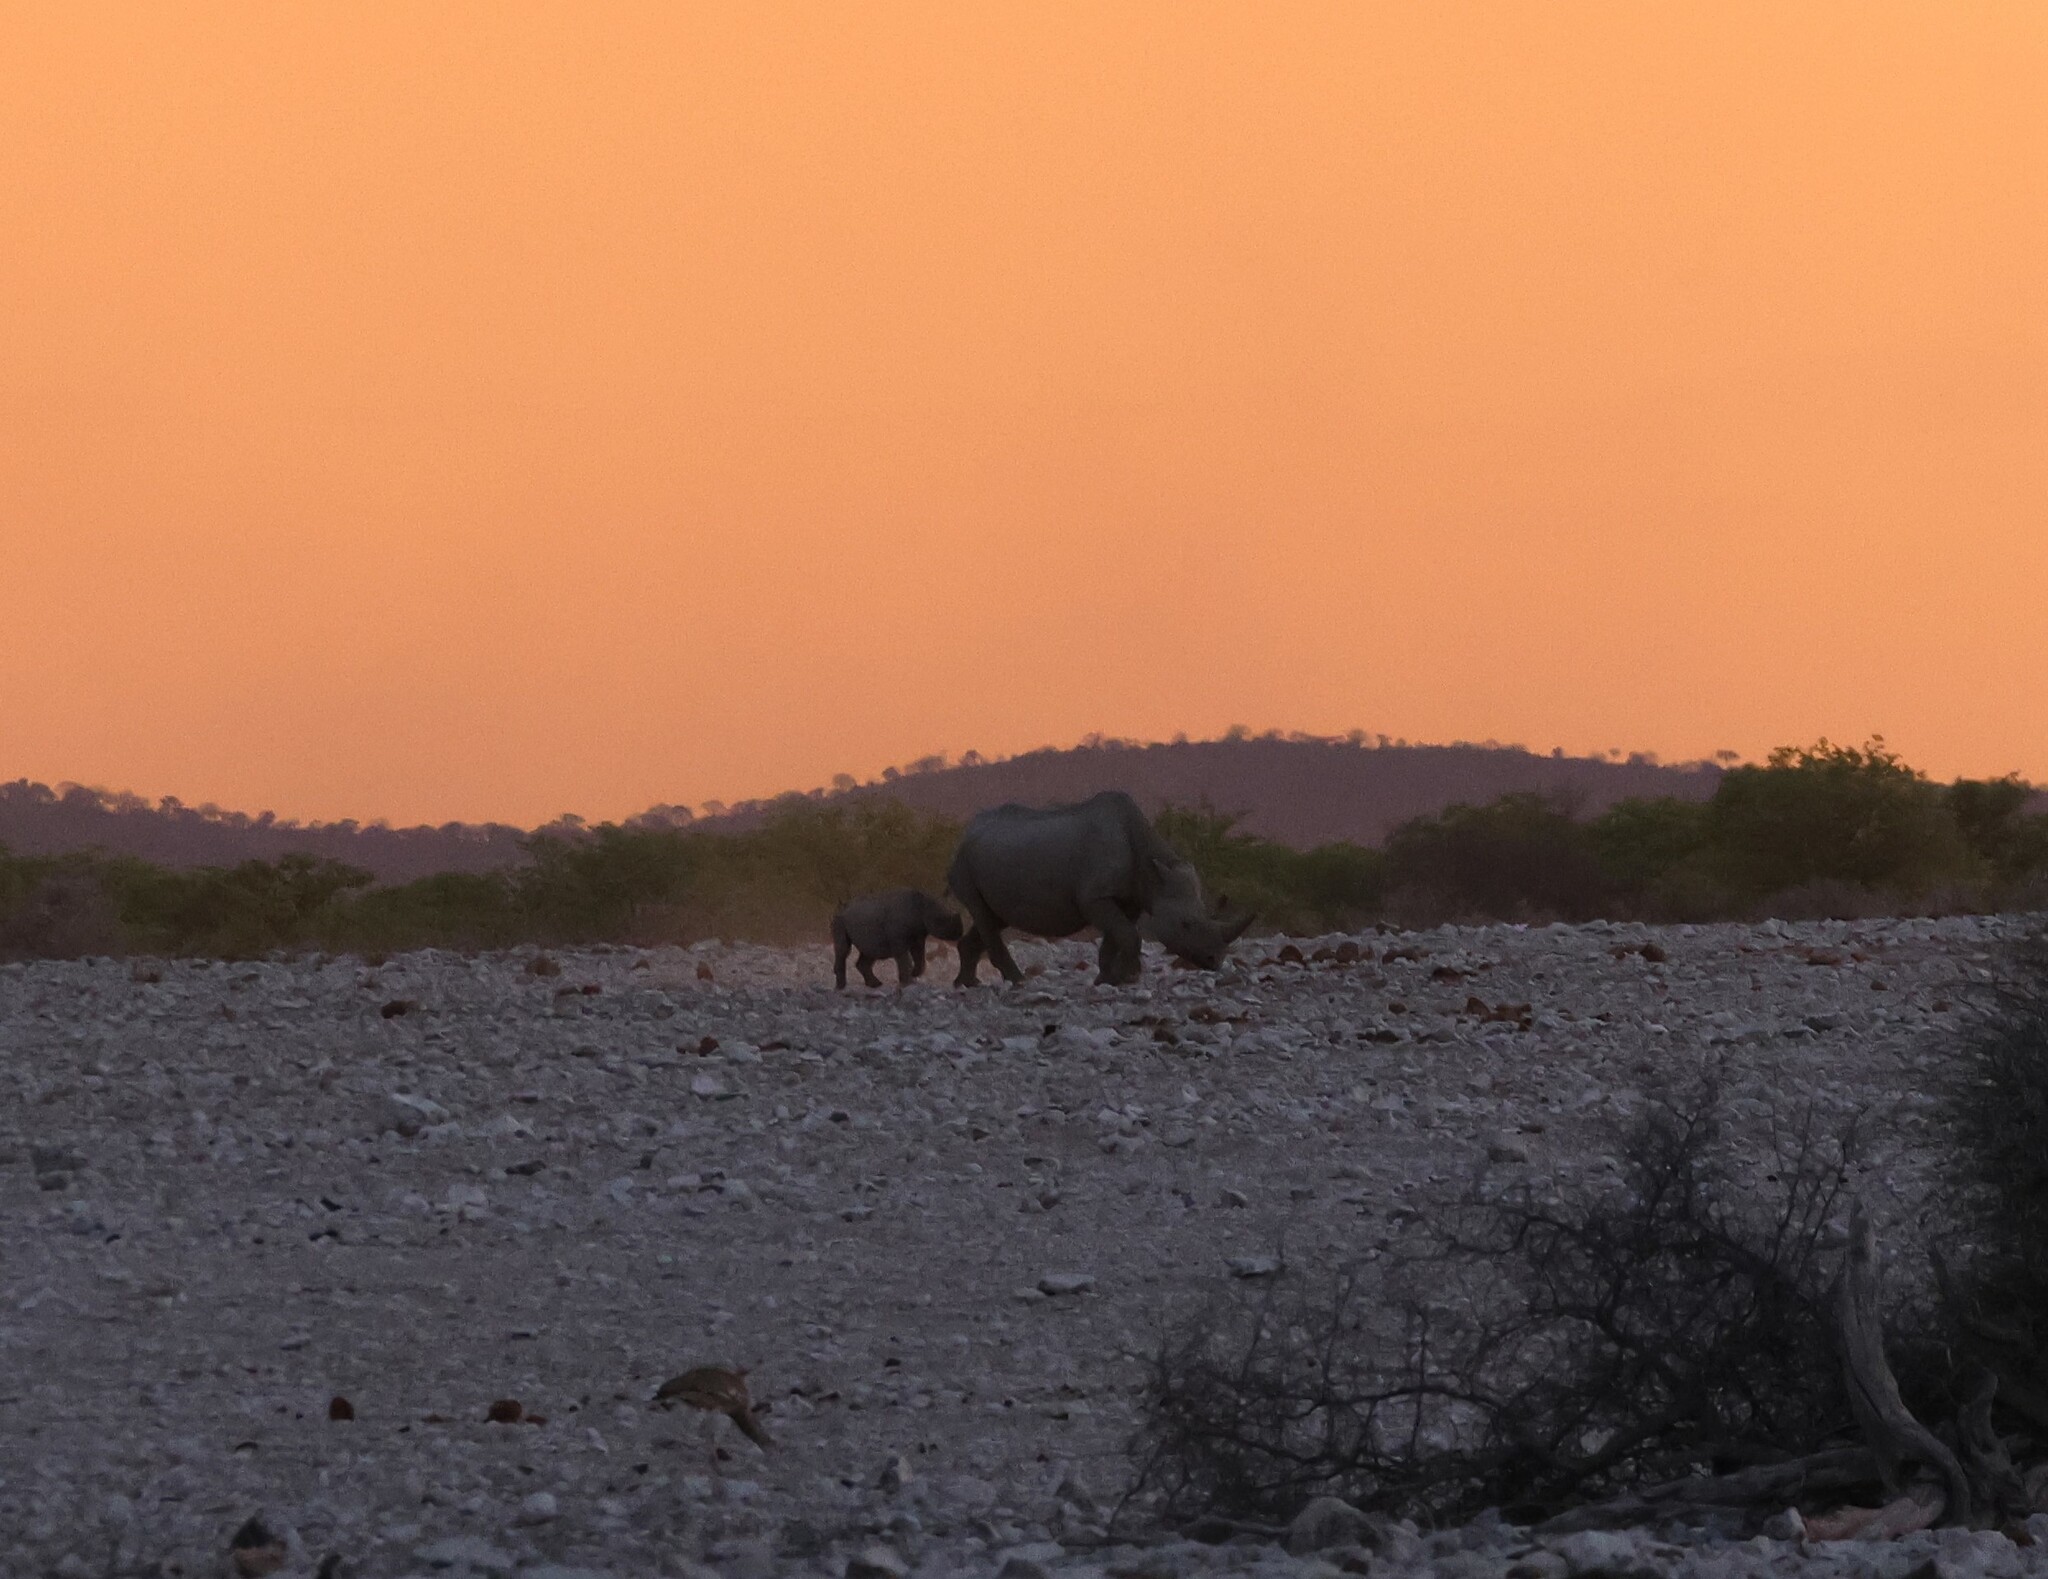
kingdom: Animalia
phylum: Chordata
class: Mammalia
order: Perissodactyla
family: Rhinocerotidae
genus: Diceros
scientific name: Diceros bicornis
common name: Black rhinoceros
